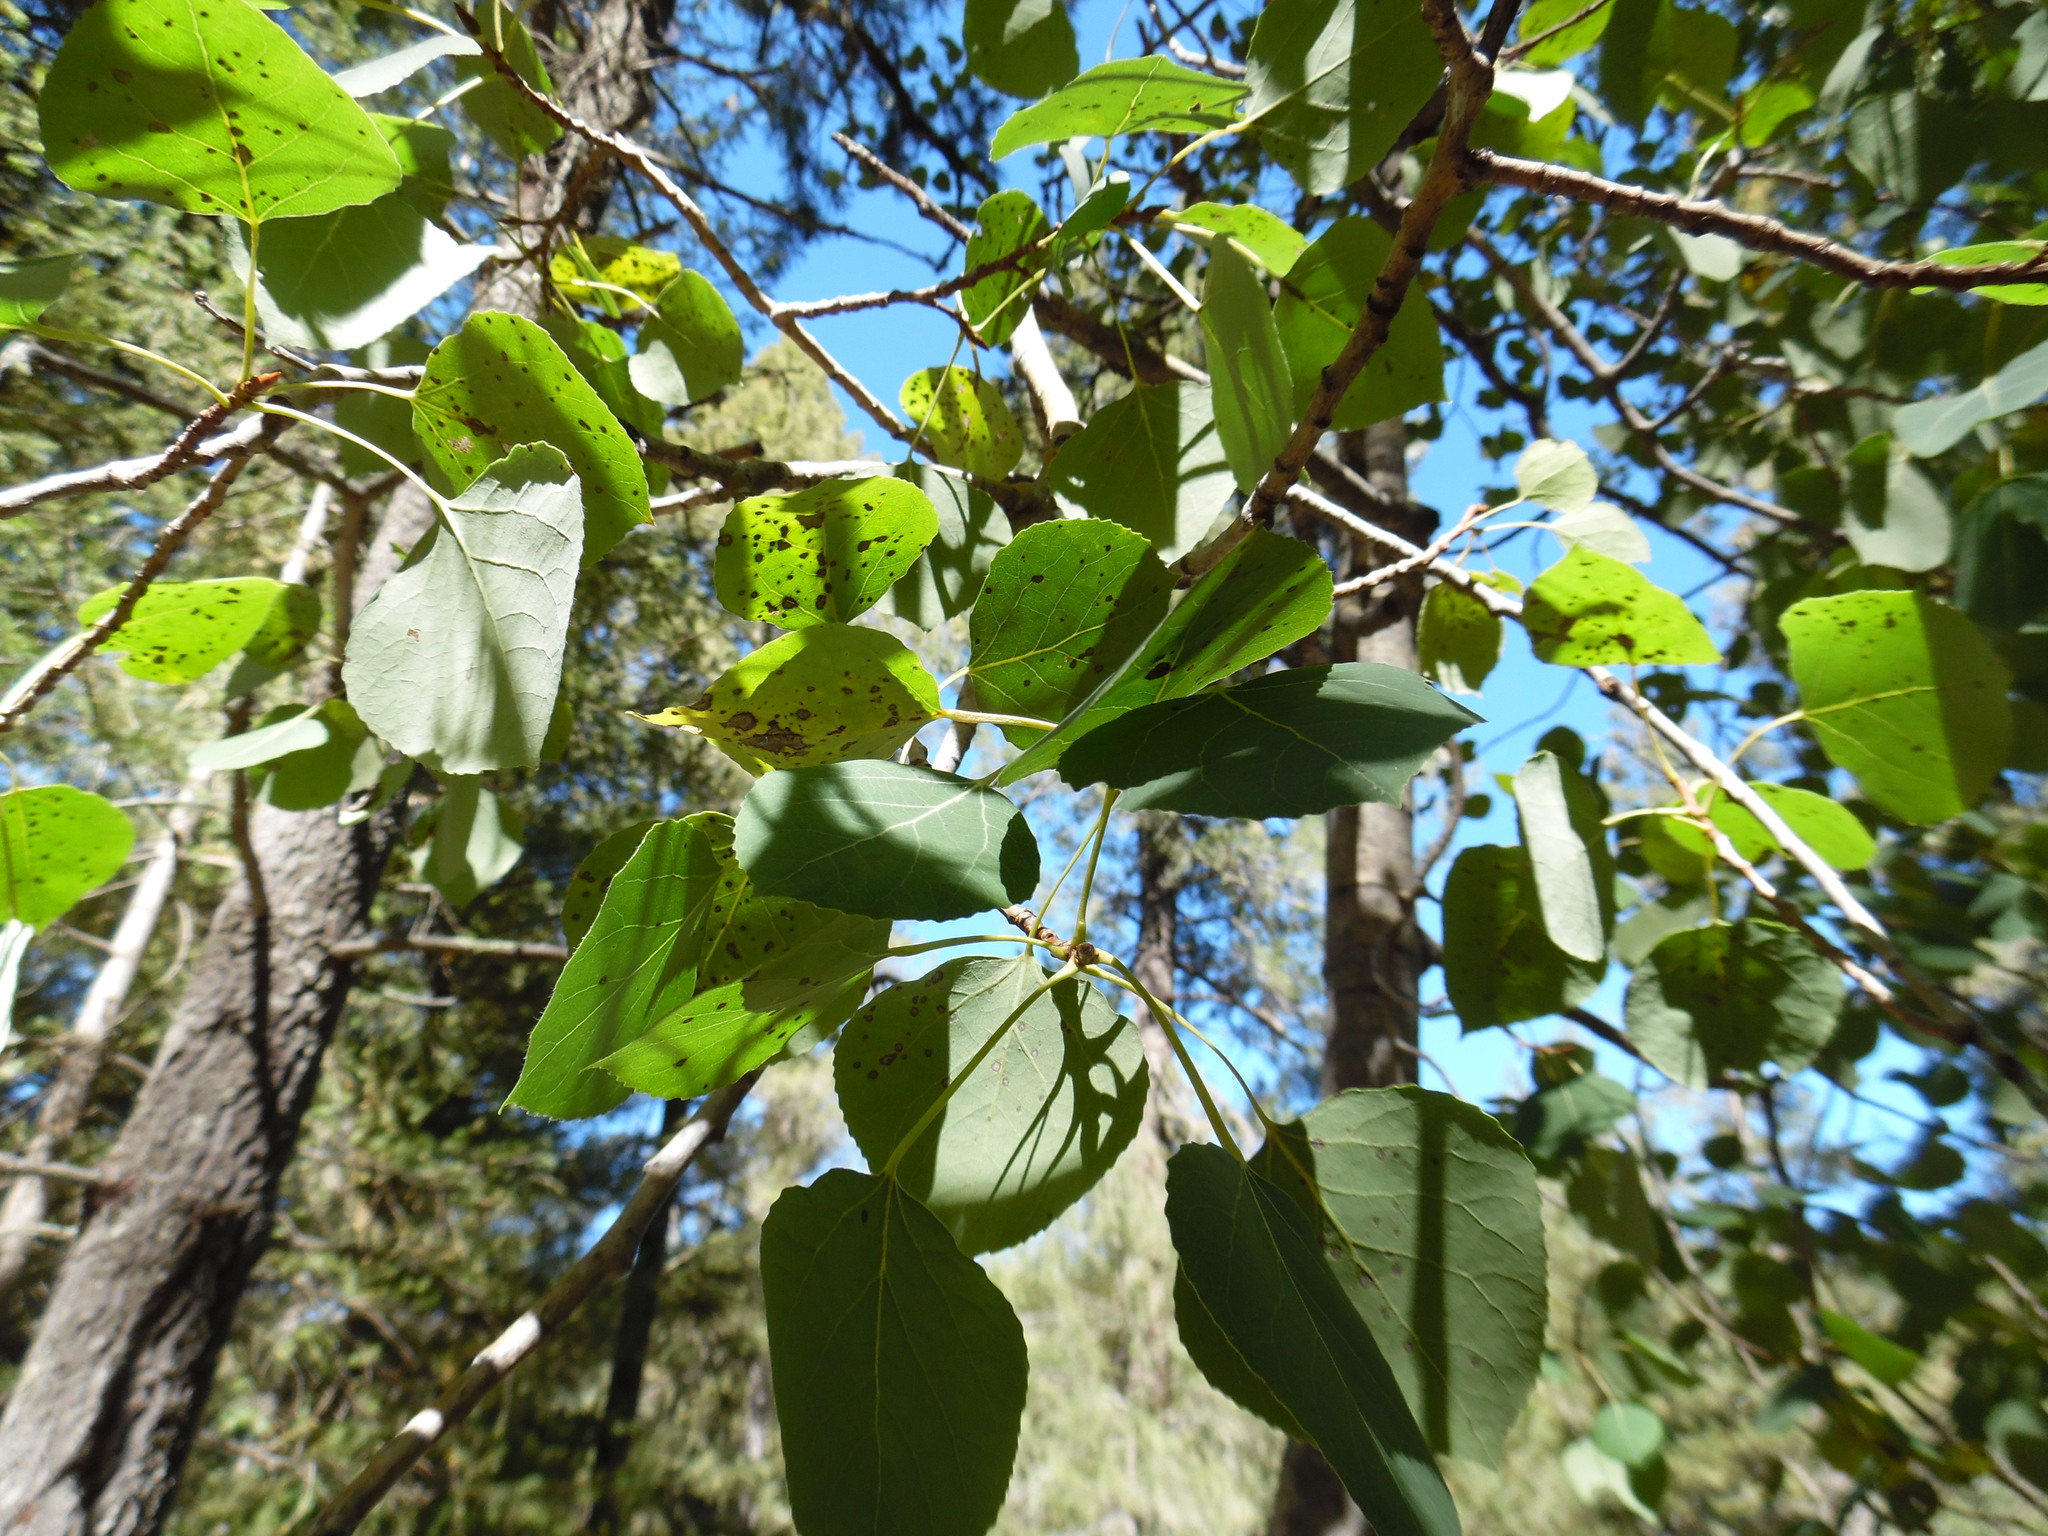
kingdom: Plantae
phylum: Tracheophyta
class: Magnoliopsida
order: Malpighiales
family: Salicaceae
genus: Populus
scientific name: Populus tremuloides
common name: Quaking aspen
